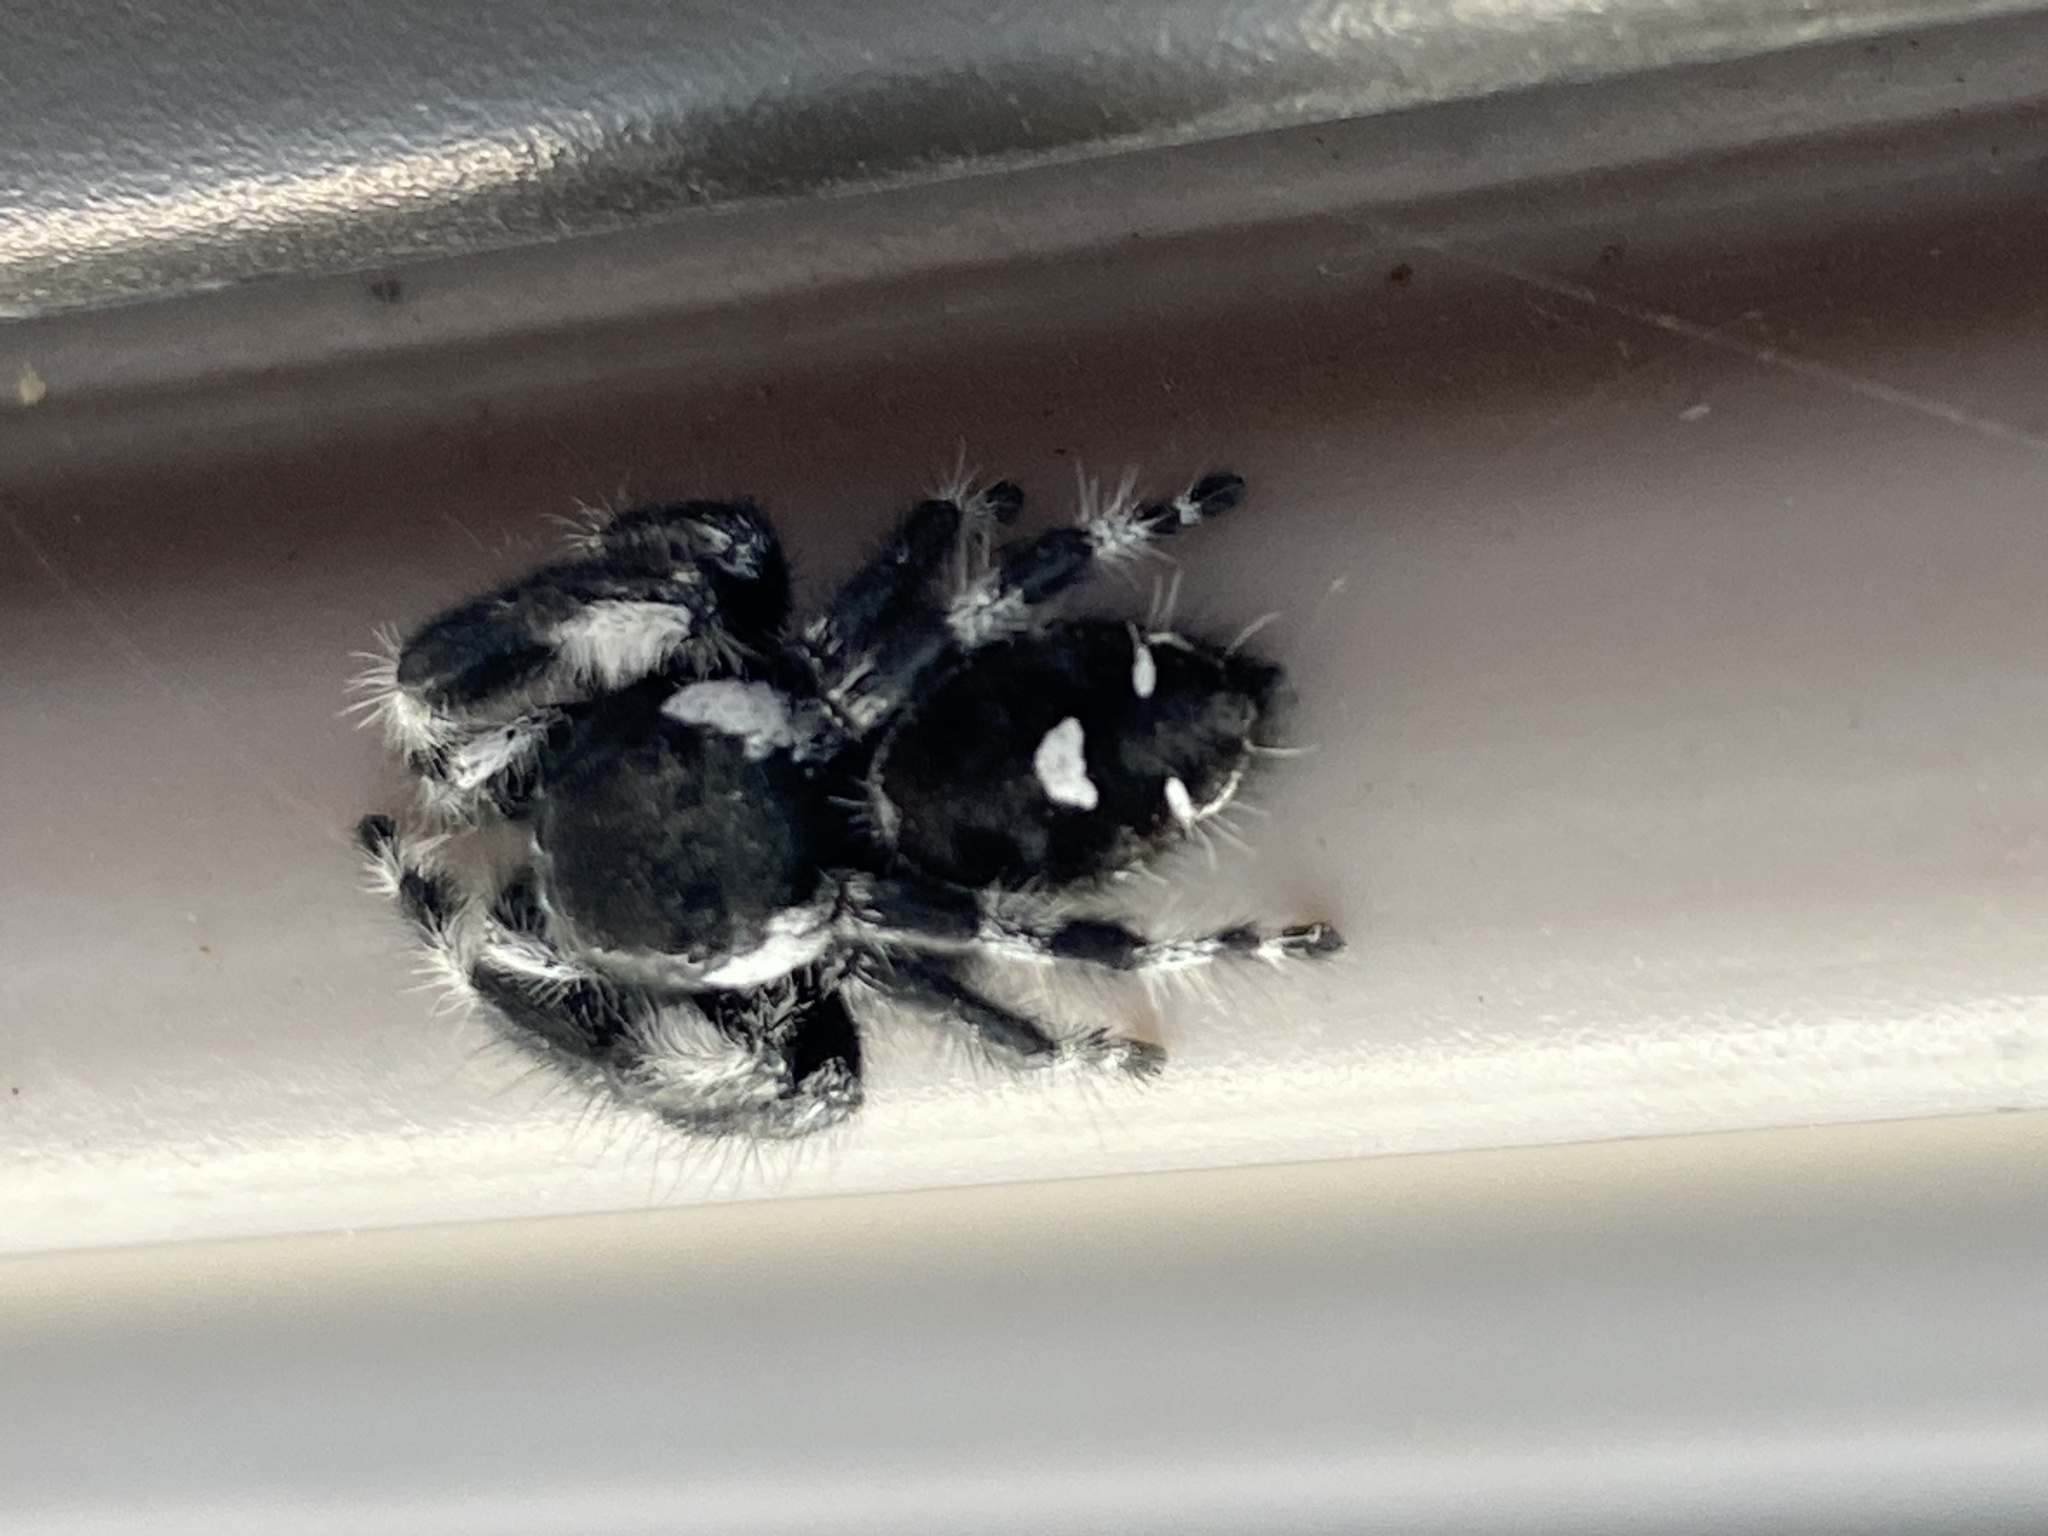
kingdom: Animalia
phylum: Arthropoda
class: Arachnida
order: Araneae
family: Salticidae
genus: Phidippus
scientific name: Phidippus audax
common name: Bold jumper
